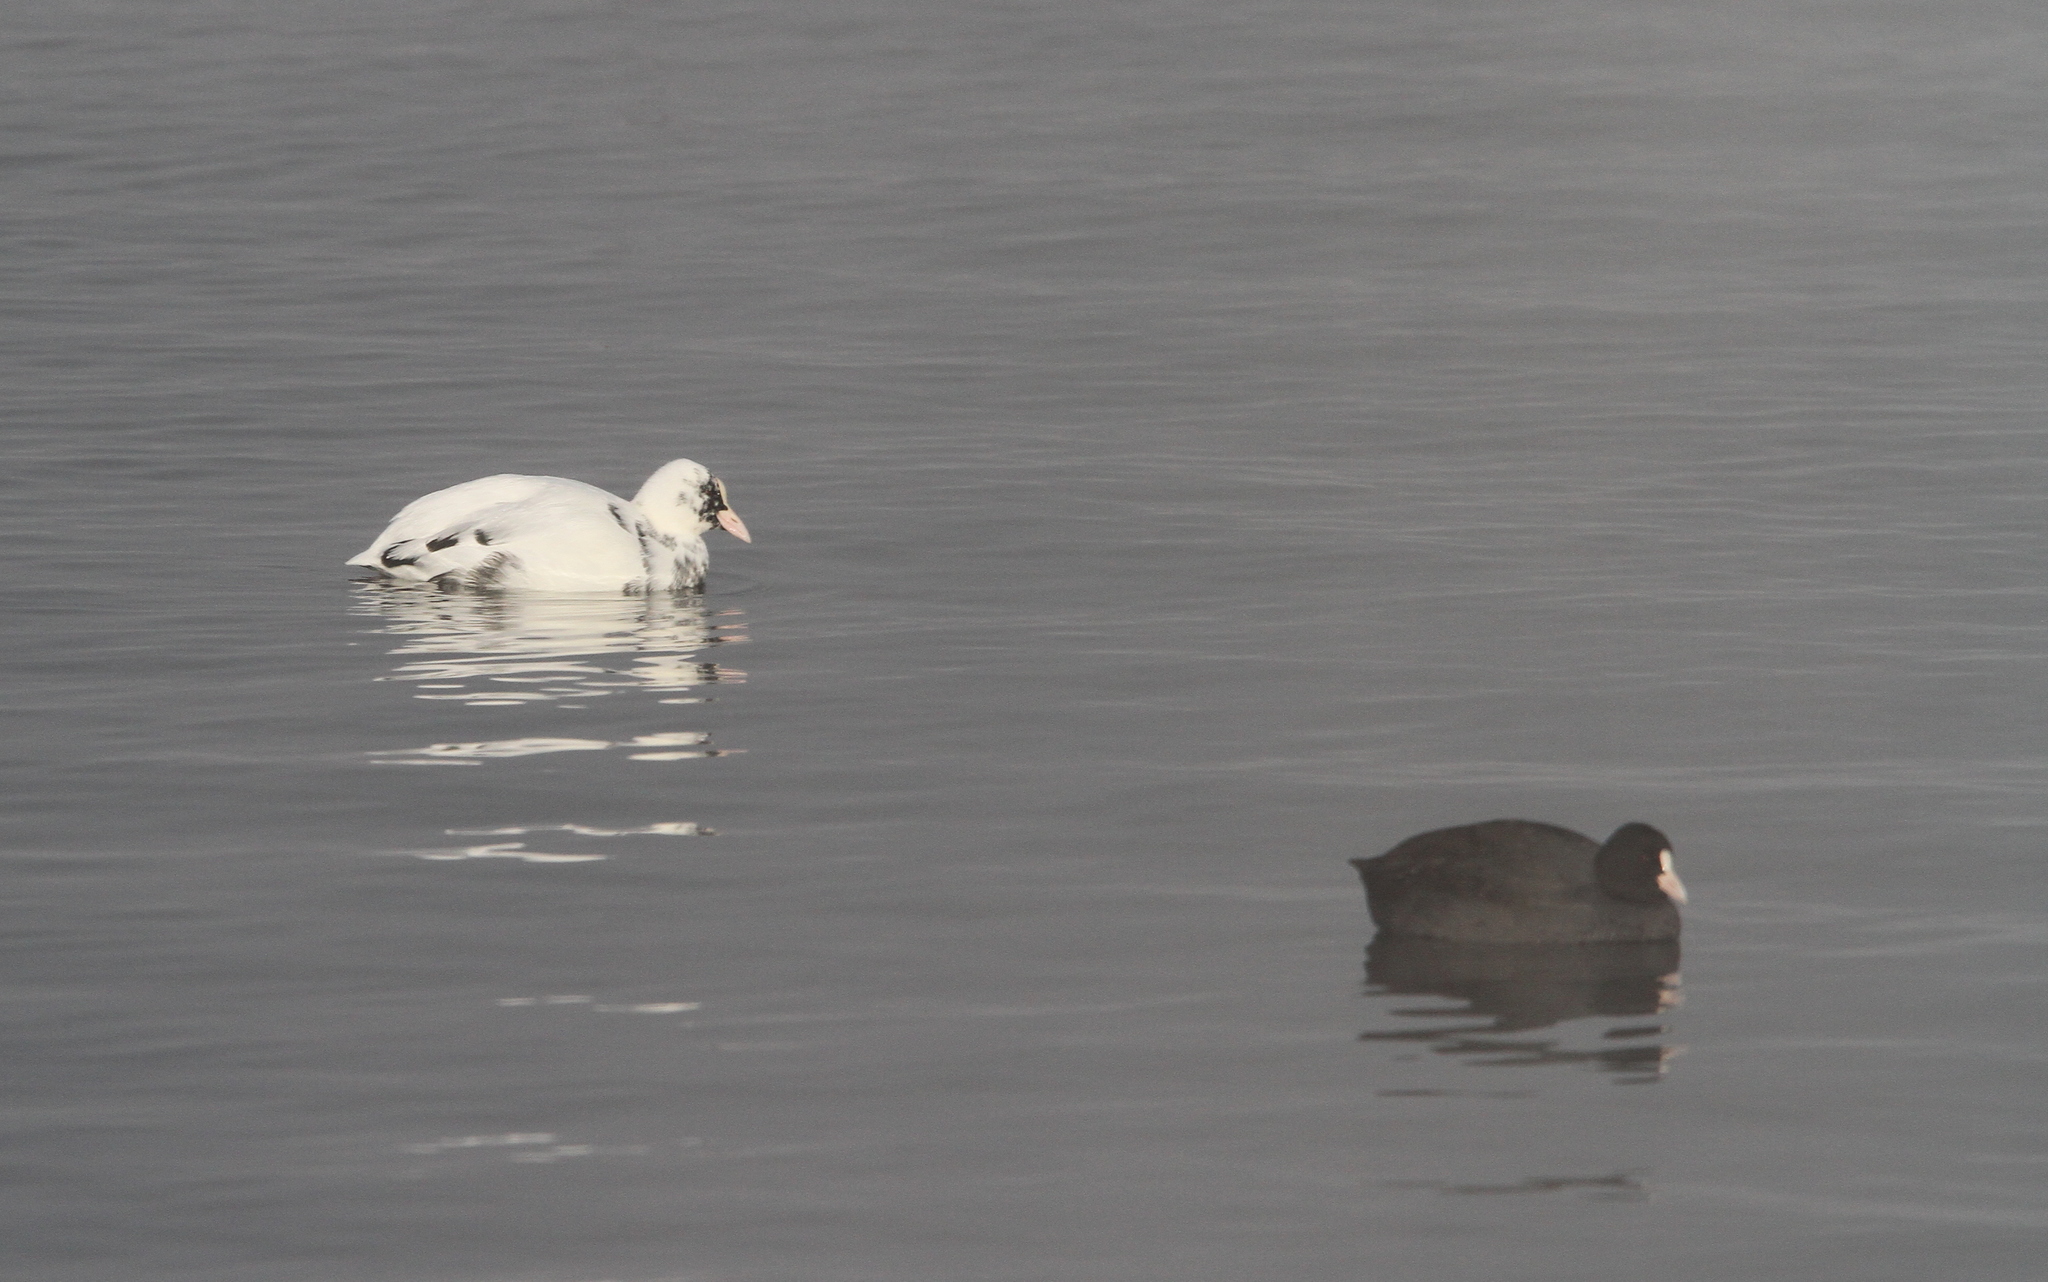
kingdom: Animalia
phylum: Chordata
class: Aves
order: Gruiformes
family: Rallidae
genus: Fulica
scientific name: Fulica atra
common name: Eurasian coot
